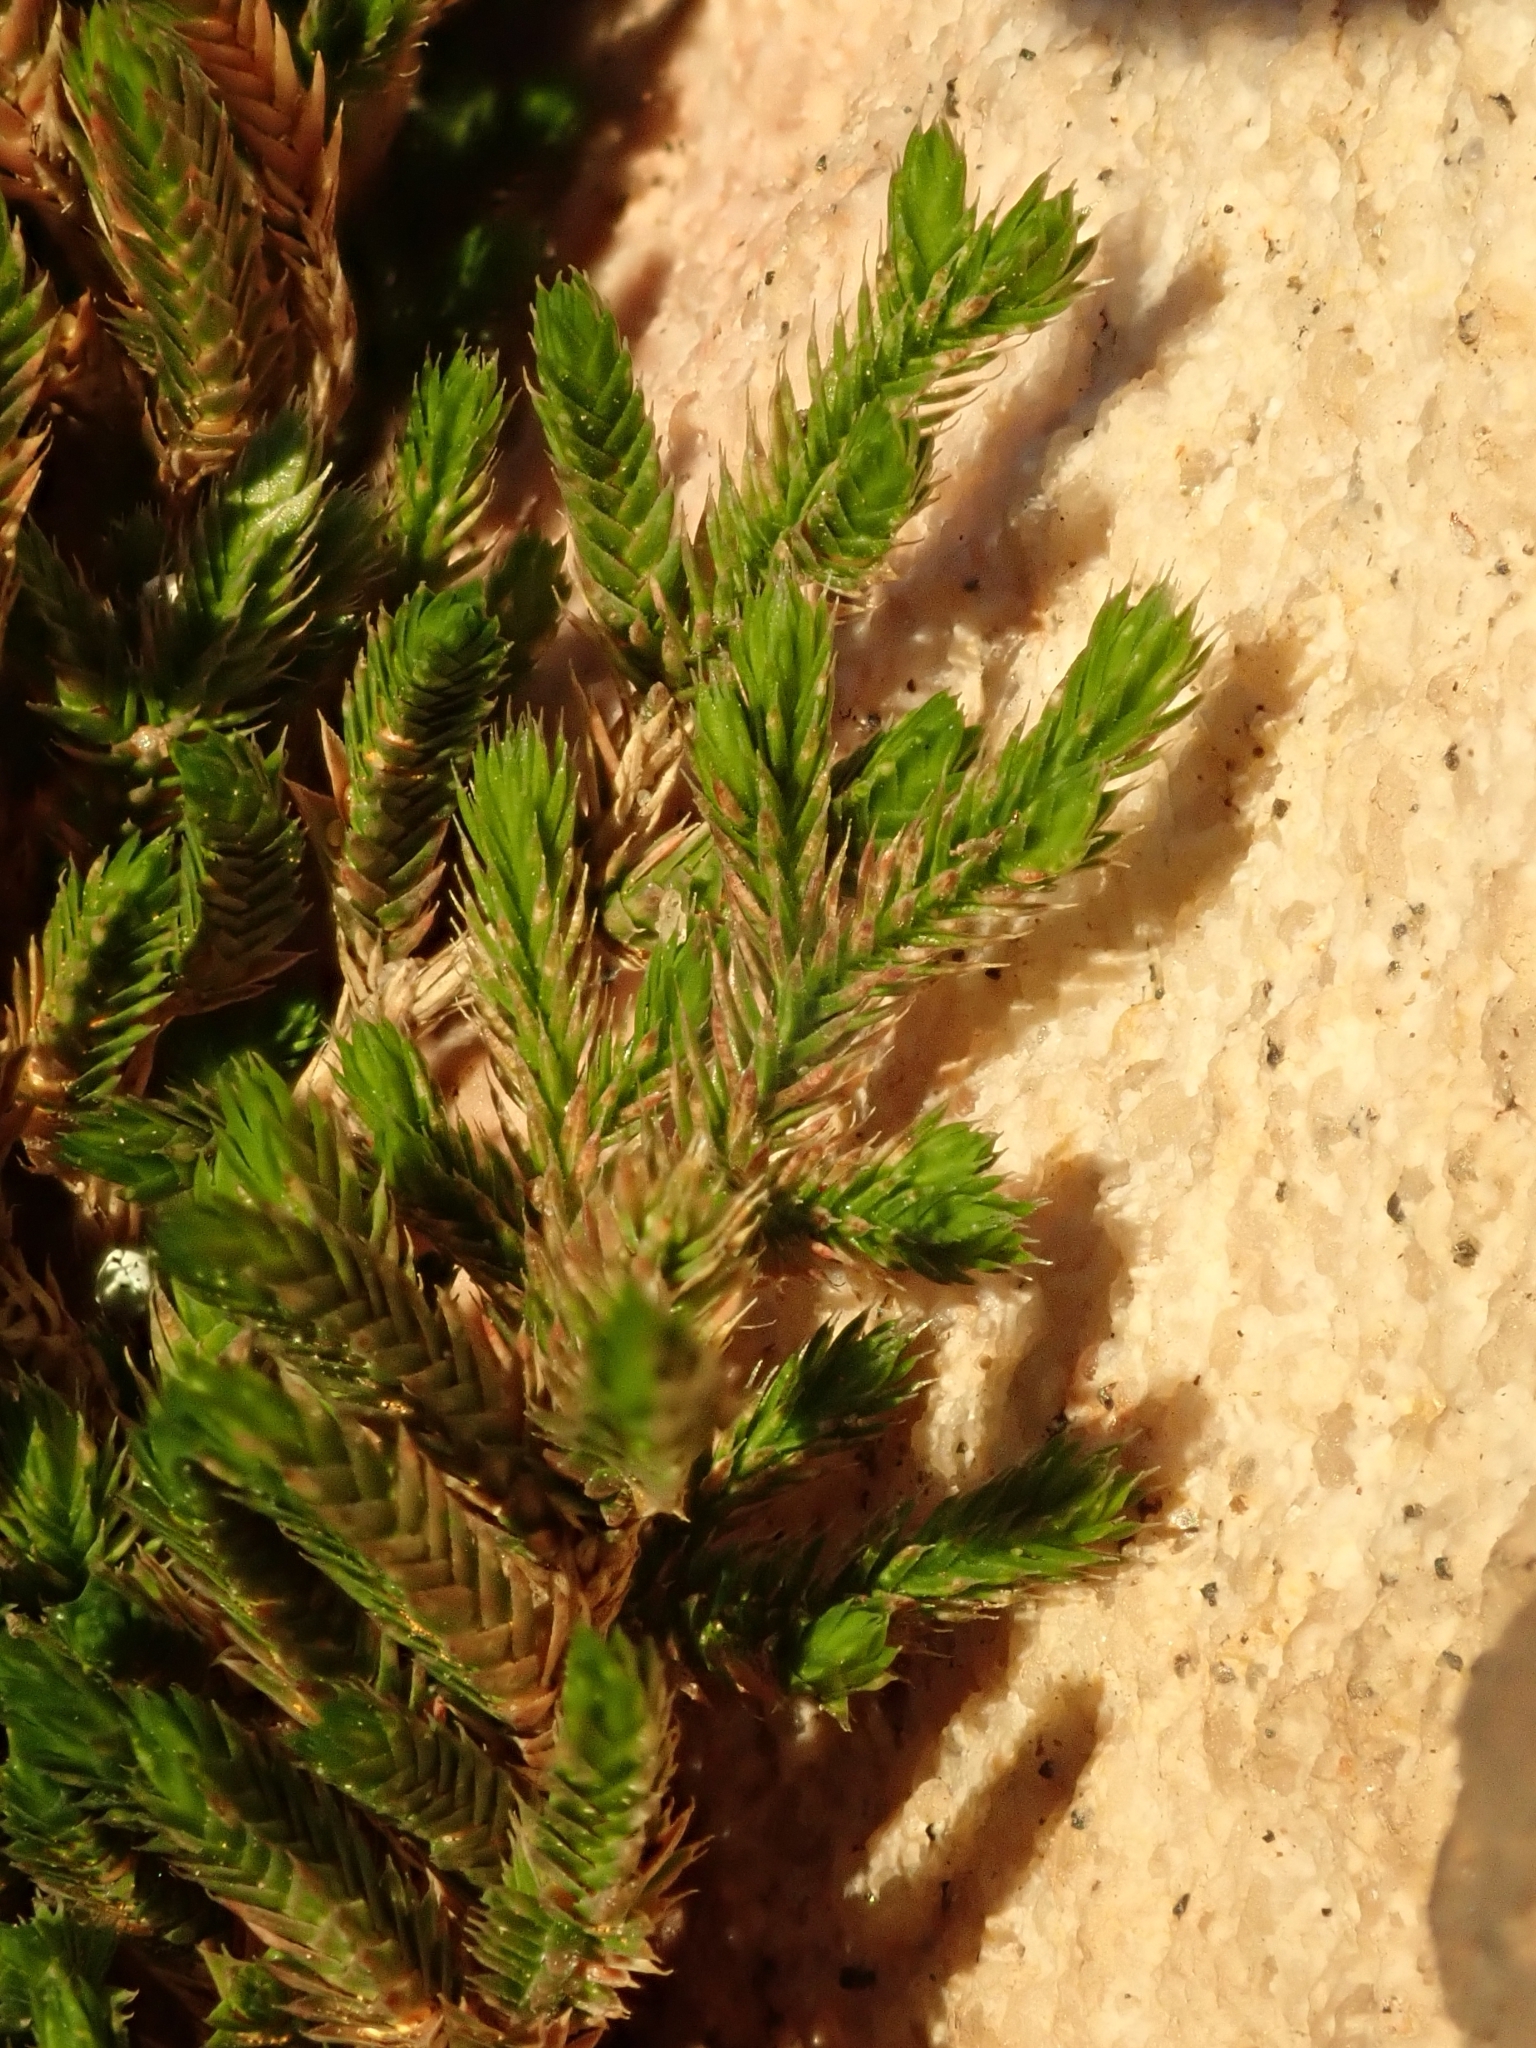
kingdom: Plantae
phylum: Tracheophyta
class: Lycopodiopsida
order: Selaginellales
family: Selaginellaceae
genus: Selaginella
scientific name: Selaginella bigelovii
